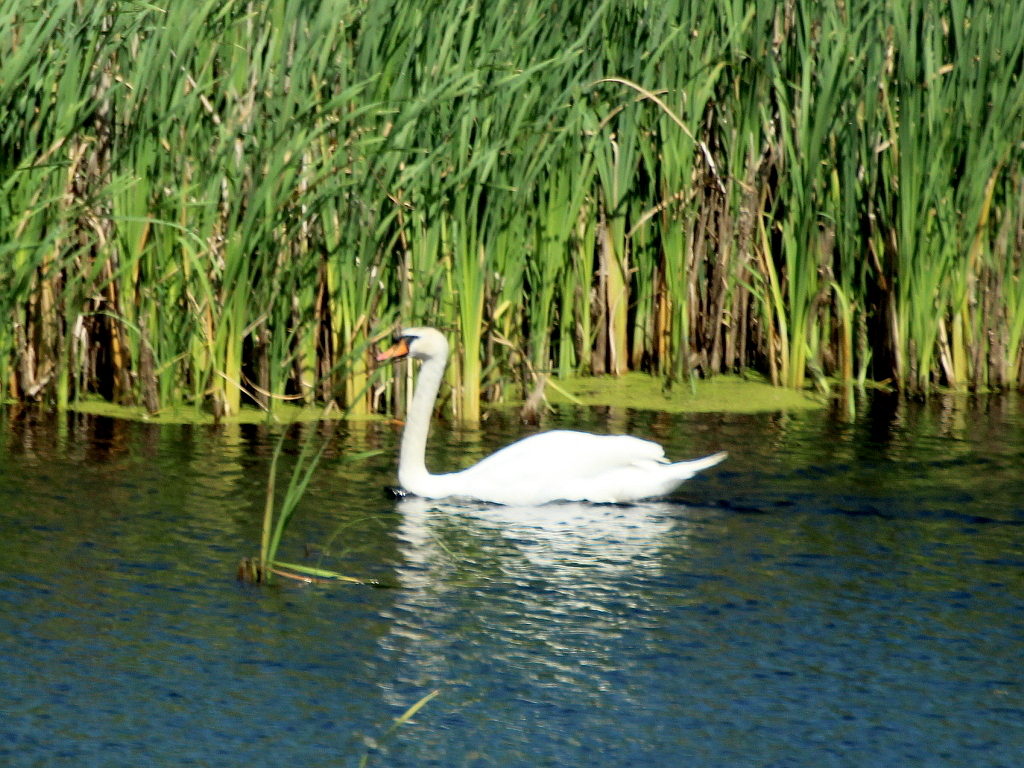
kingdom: Animalia
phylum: Chordata
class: Aves
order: Anseriformes
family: Anatidae
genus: Cygnus
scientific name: Cygnus olor
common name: Mute swan
